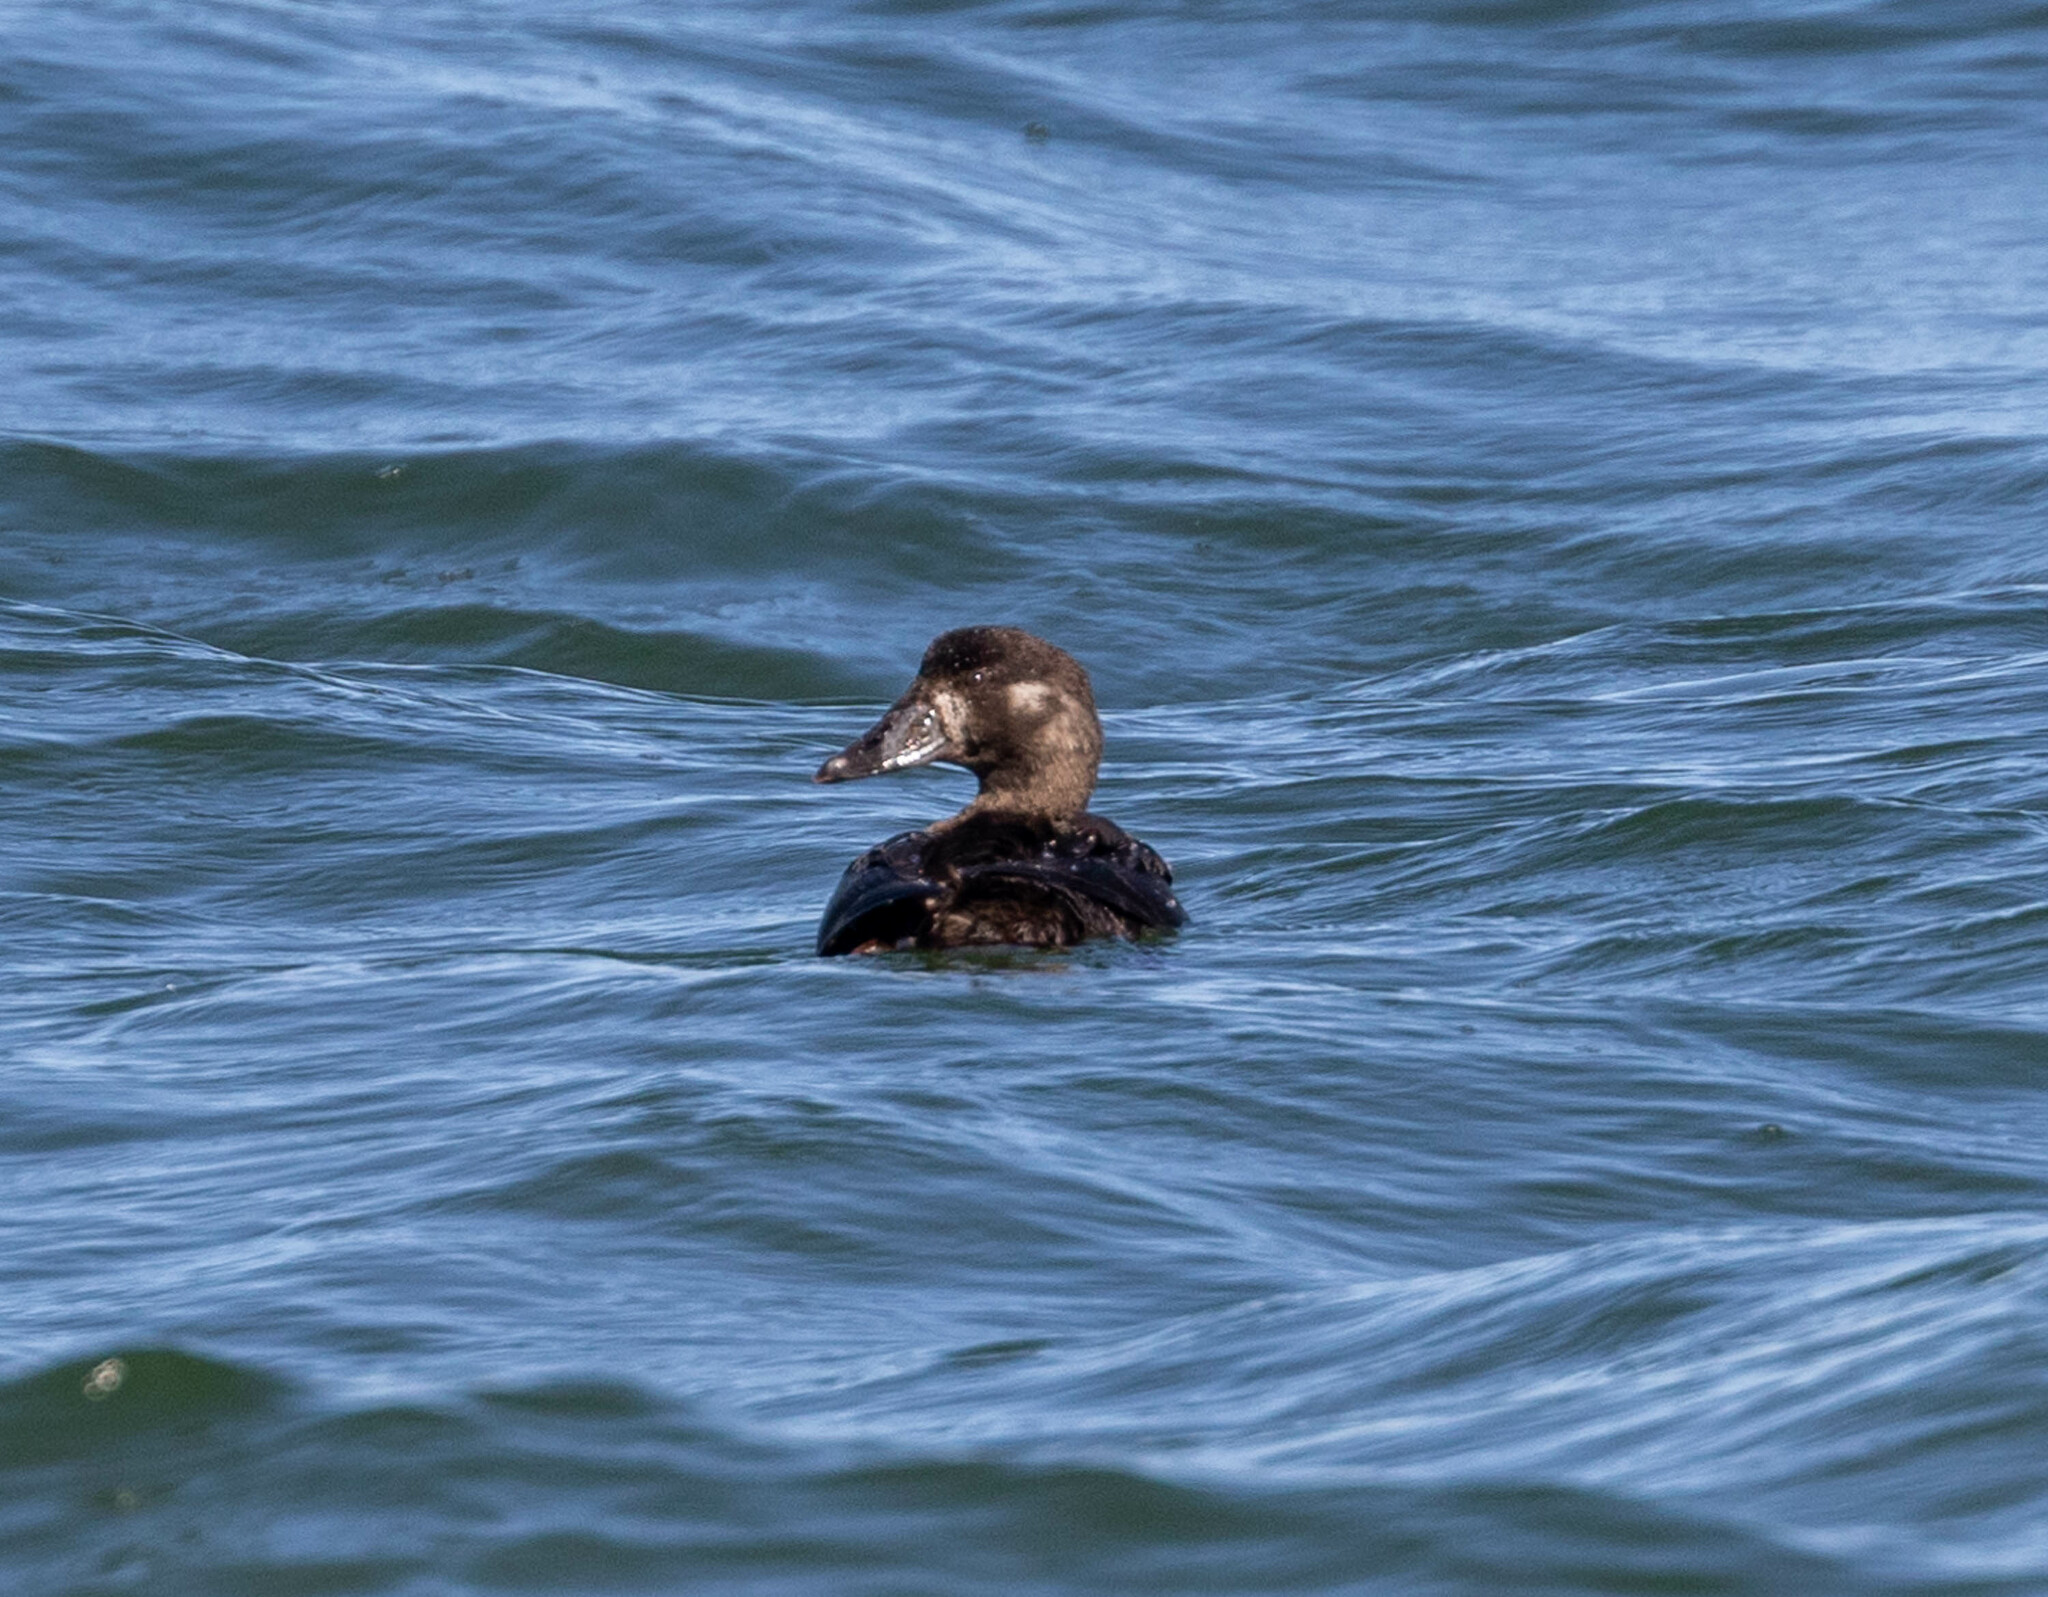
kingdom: Animalia
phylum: Chordata
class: Aves
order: Anseriformes
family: Anatidae
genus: Melanitta
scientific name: Melanitta perspicillata
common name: Surf scoter
